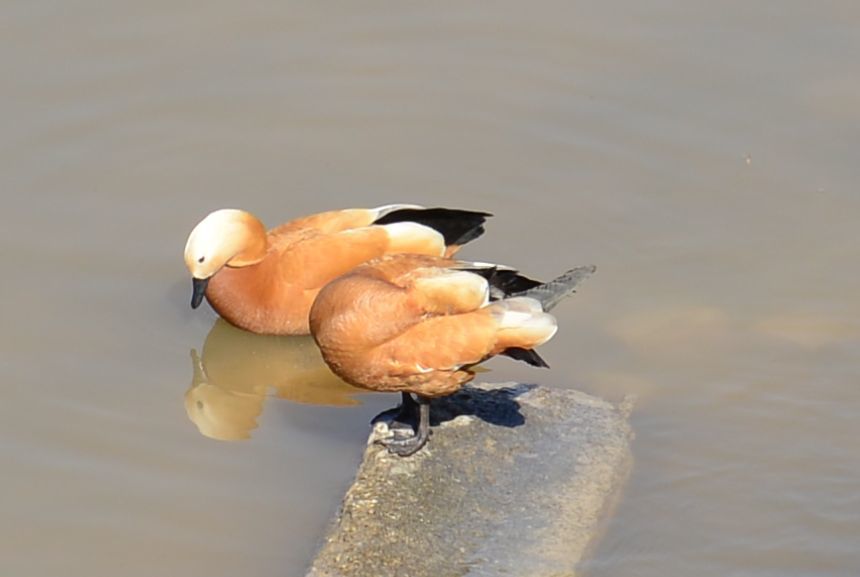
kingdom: Animalia
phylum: Chordata
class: Aves
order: Anseriformes
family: Anatidae
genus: Tadorna
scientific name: Tadorna ferruginea
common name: Ruddy shelduck
